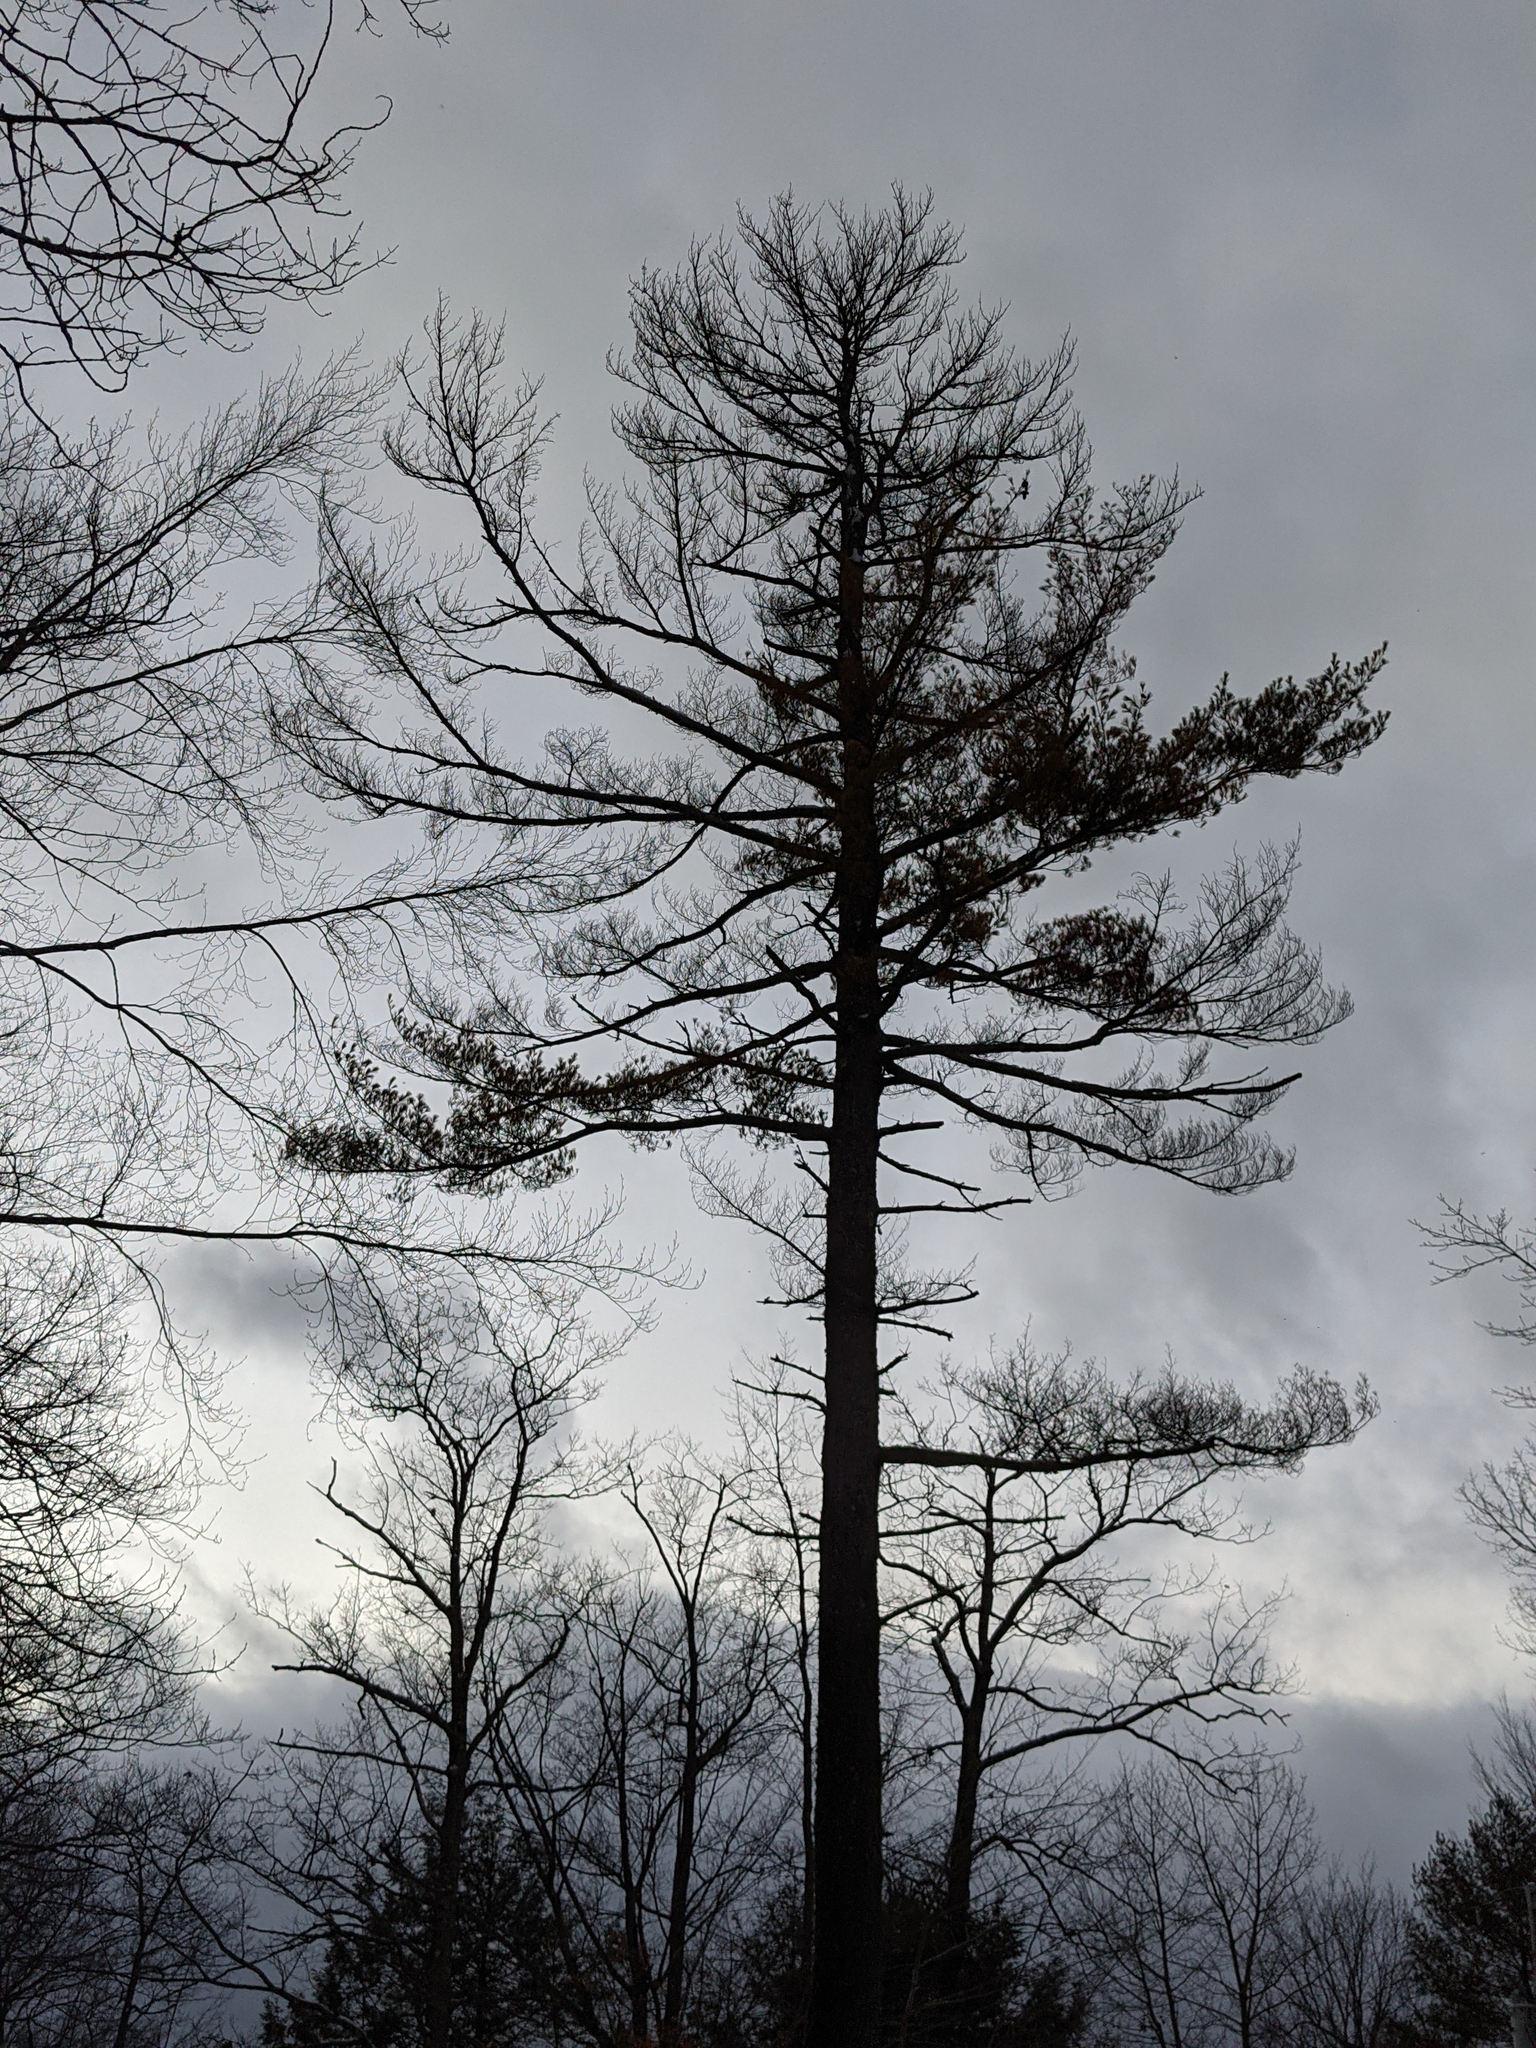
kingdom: Plantae
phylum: Tracheophyta
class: Pinopsida
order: Pinales
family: Pinaceae
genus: Pinus
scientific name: Pinus strobus
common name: Weymouth pine
